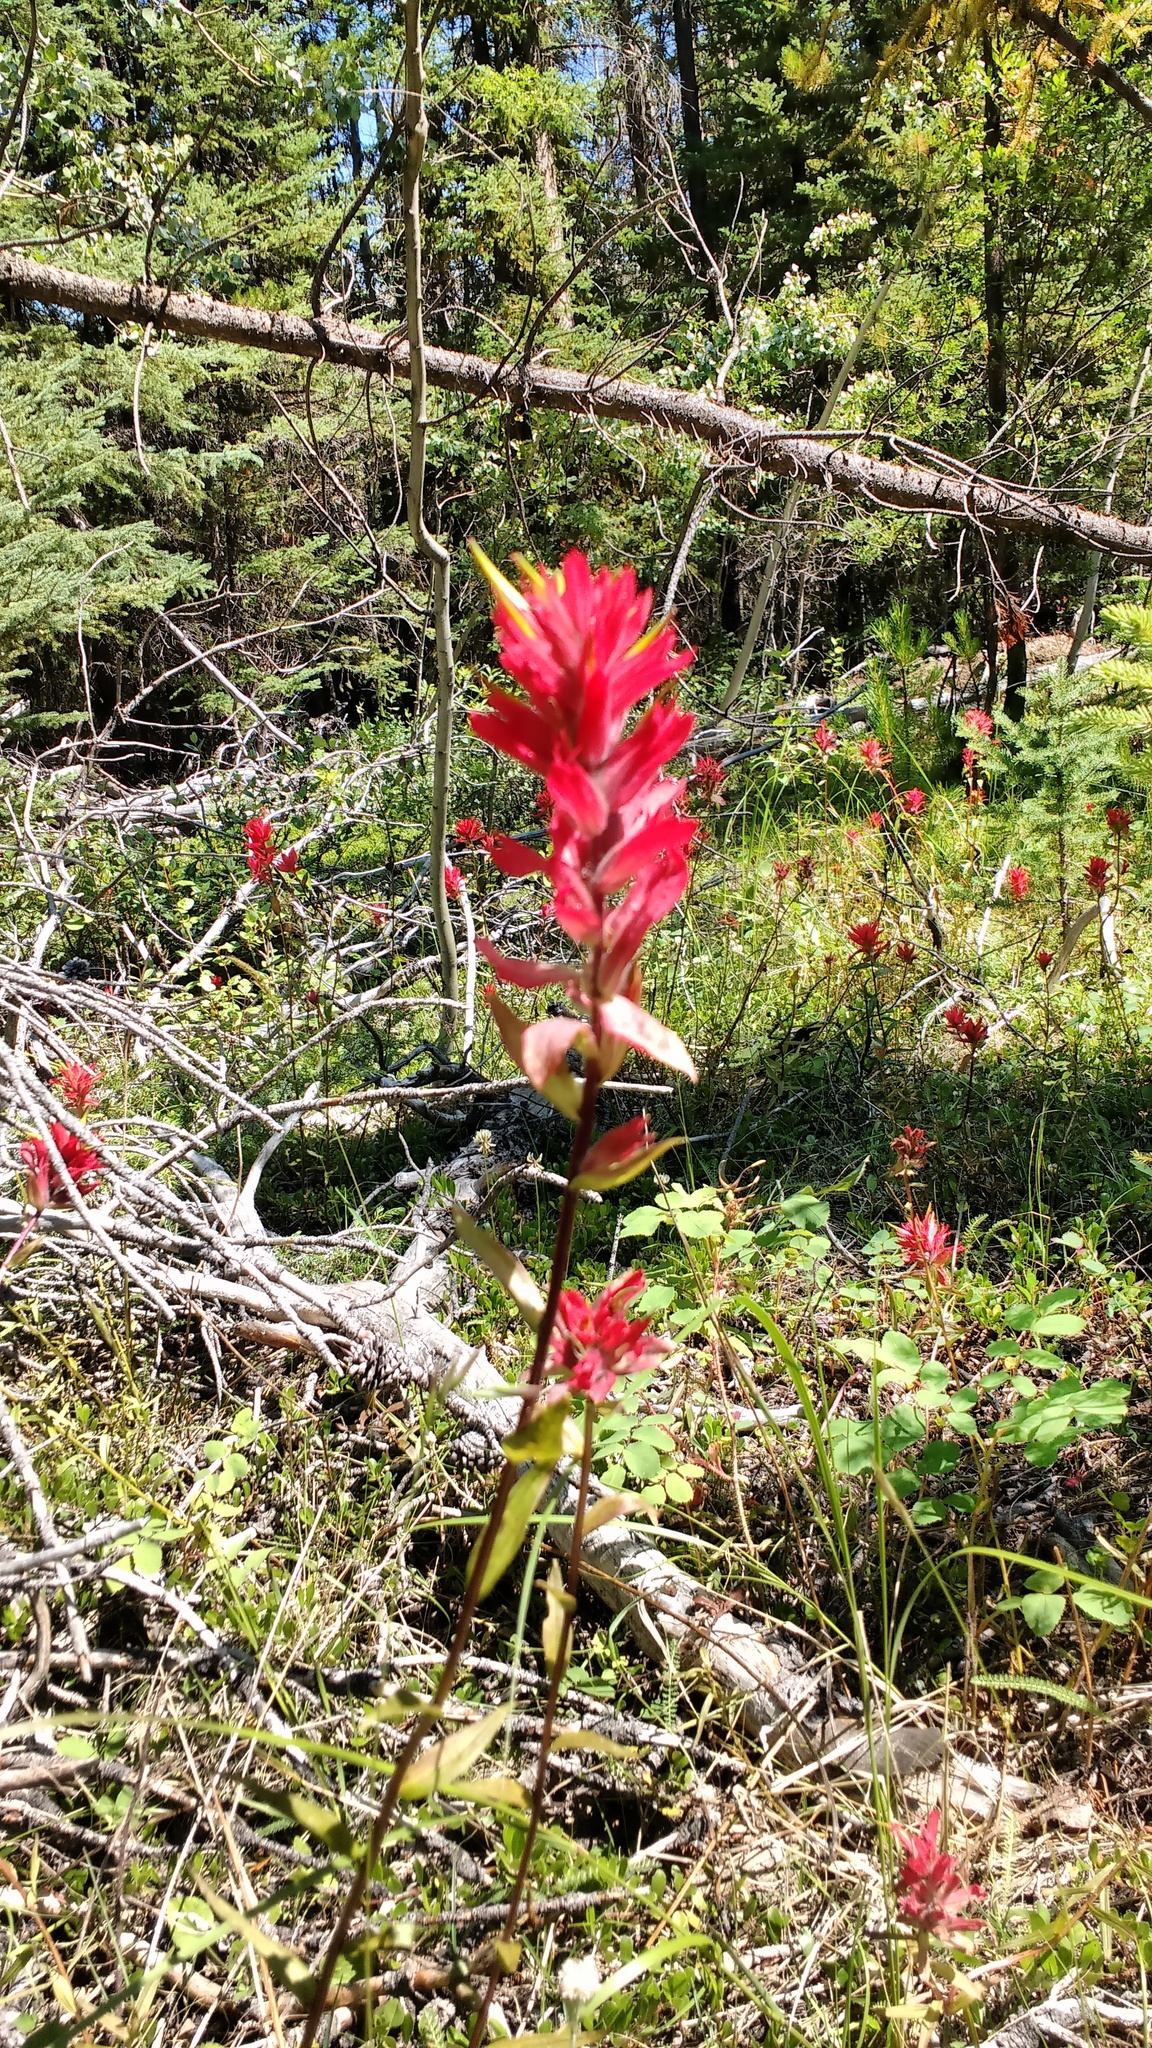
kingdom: Plantae
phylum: Tracheophyta
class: Magnoliopsida
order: Lamiales
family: Orobanchaceae
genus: Castilleja
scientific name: Castilleja miniata
